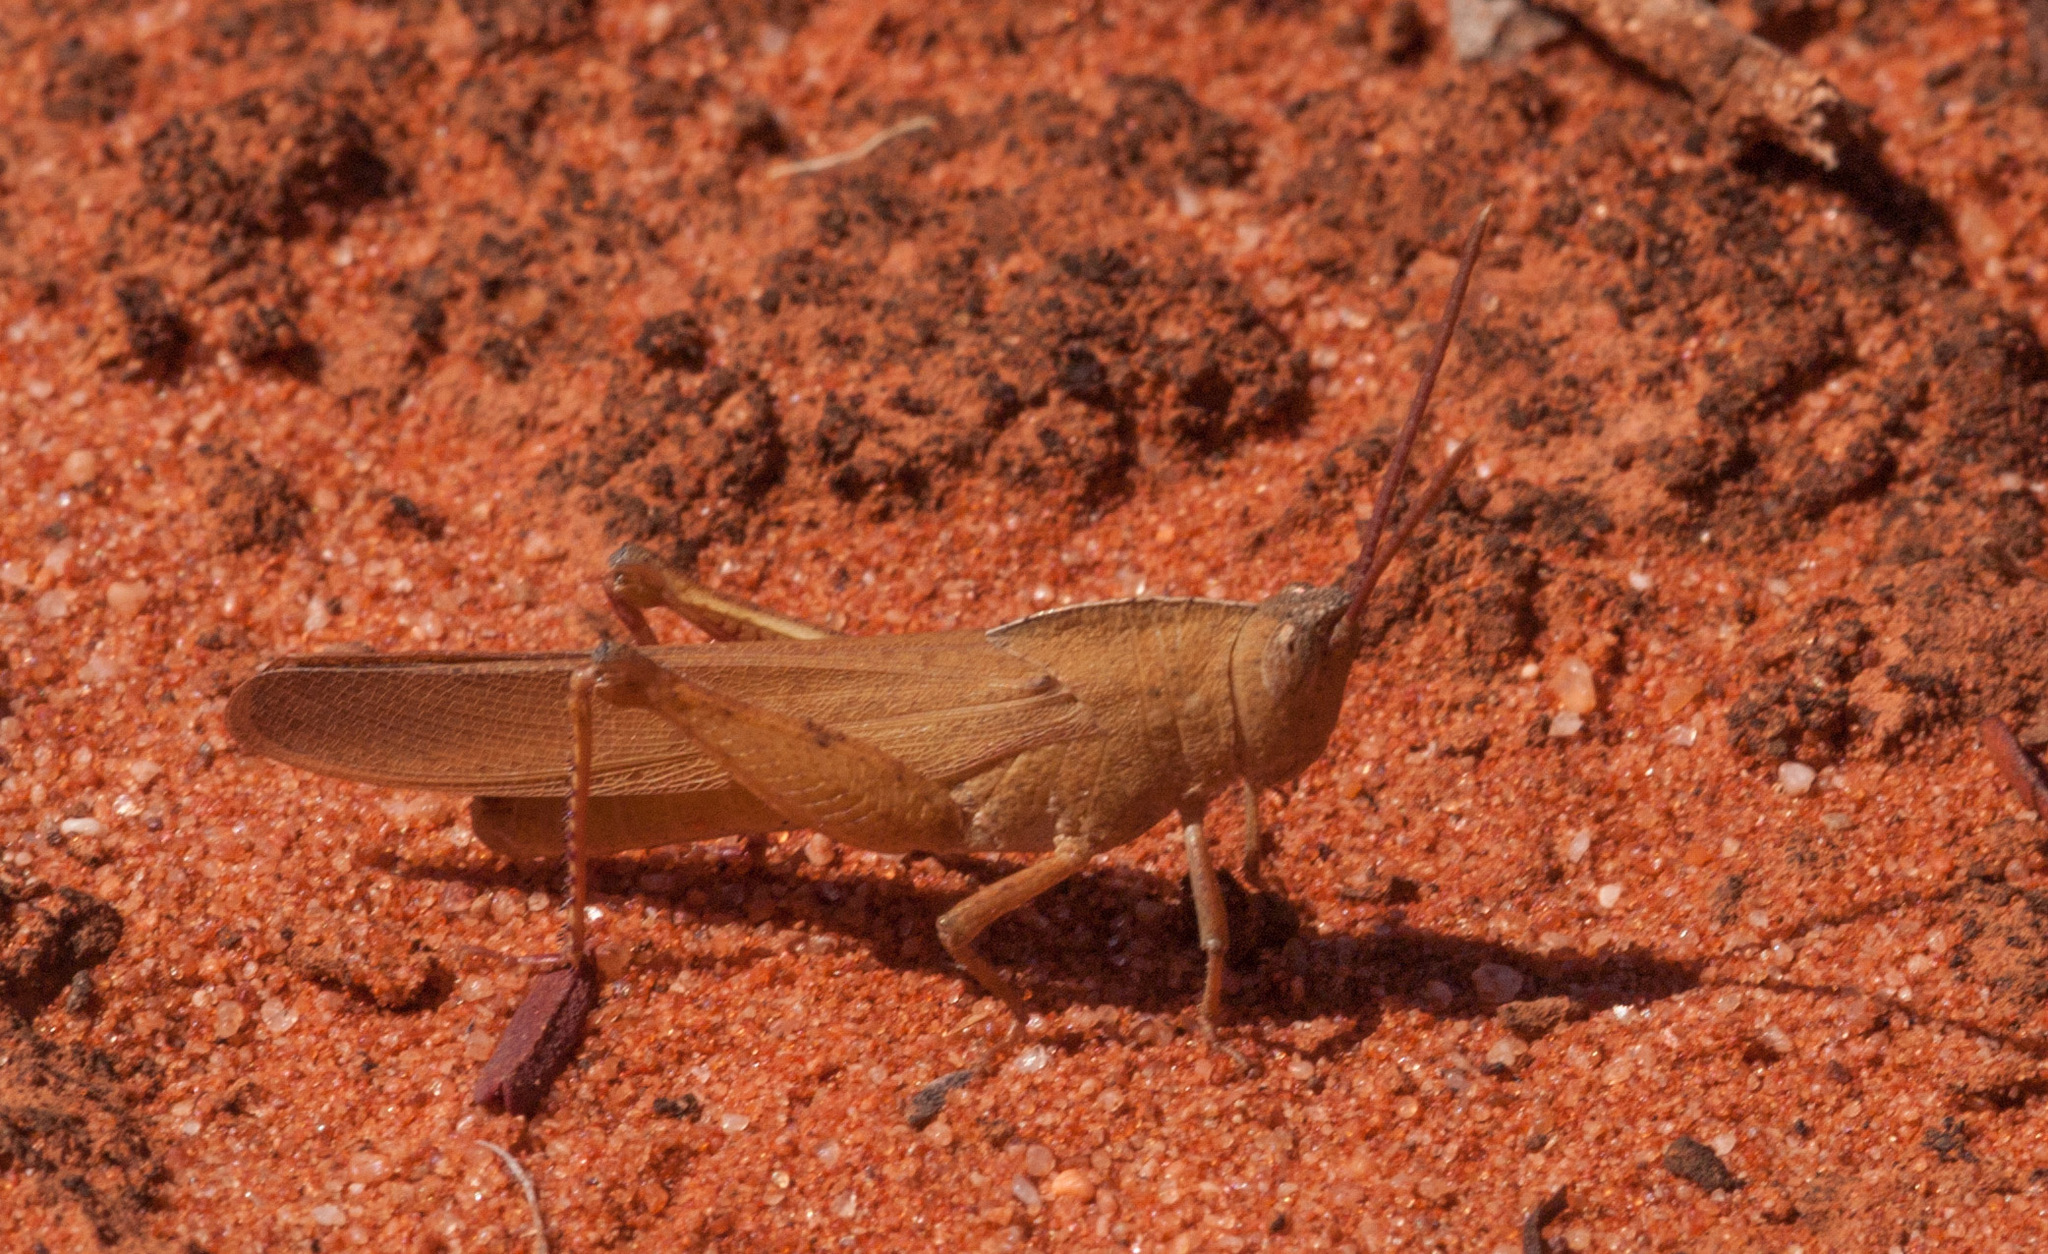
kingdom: Animalia
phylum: Arthropoda
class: Insecta
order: Orthoptera
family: Acrididae
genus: Goniaea
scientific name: Goniaea australasiae
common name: Gumleaf grasshopper
